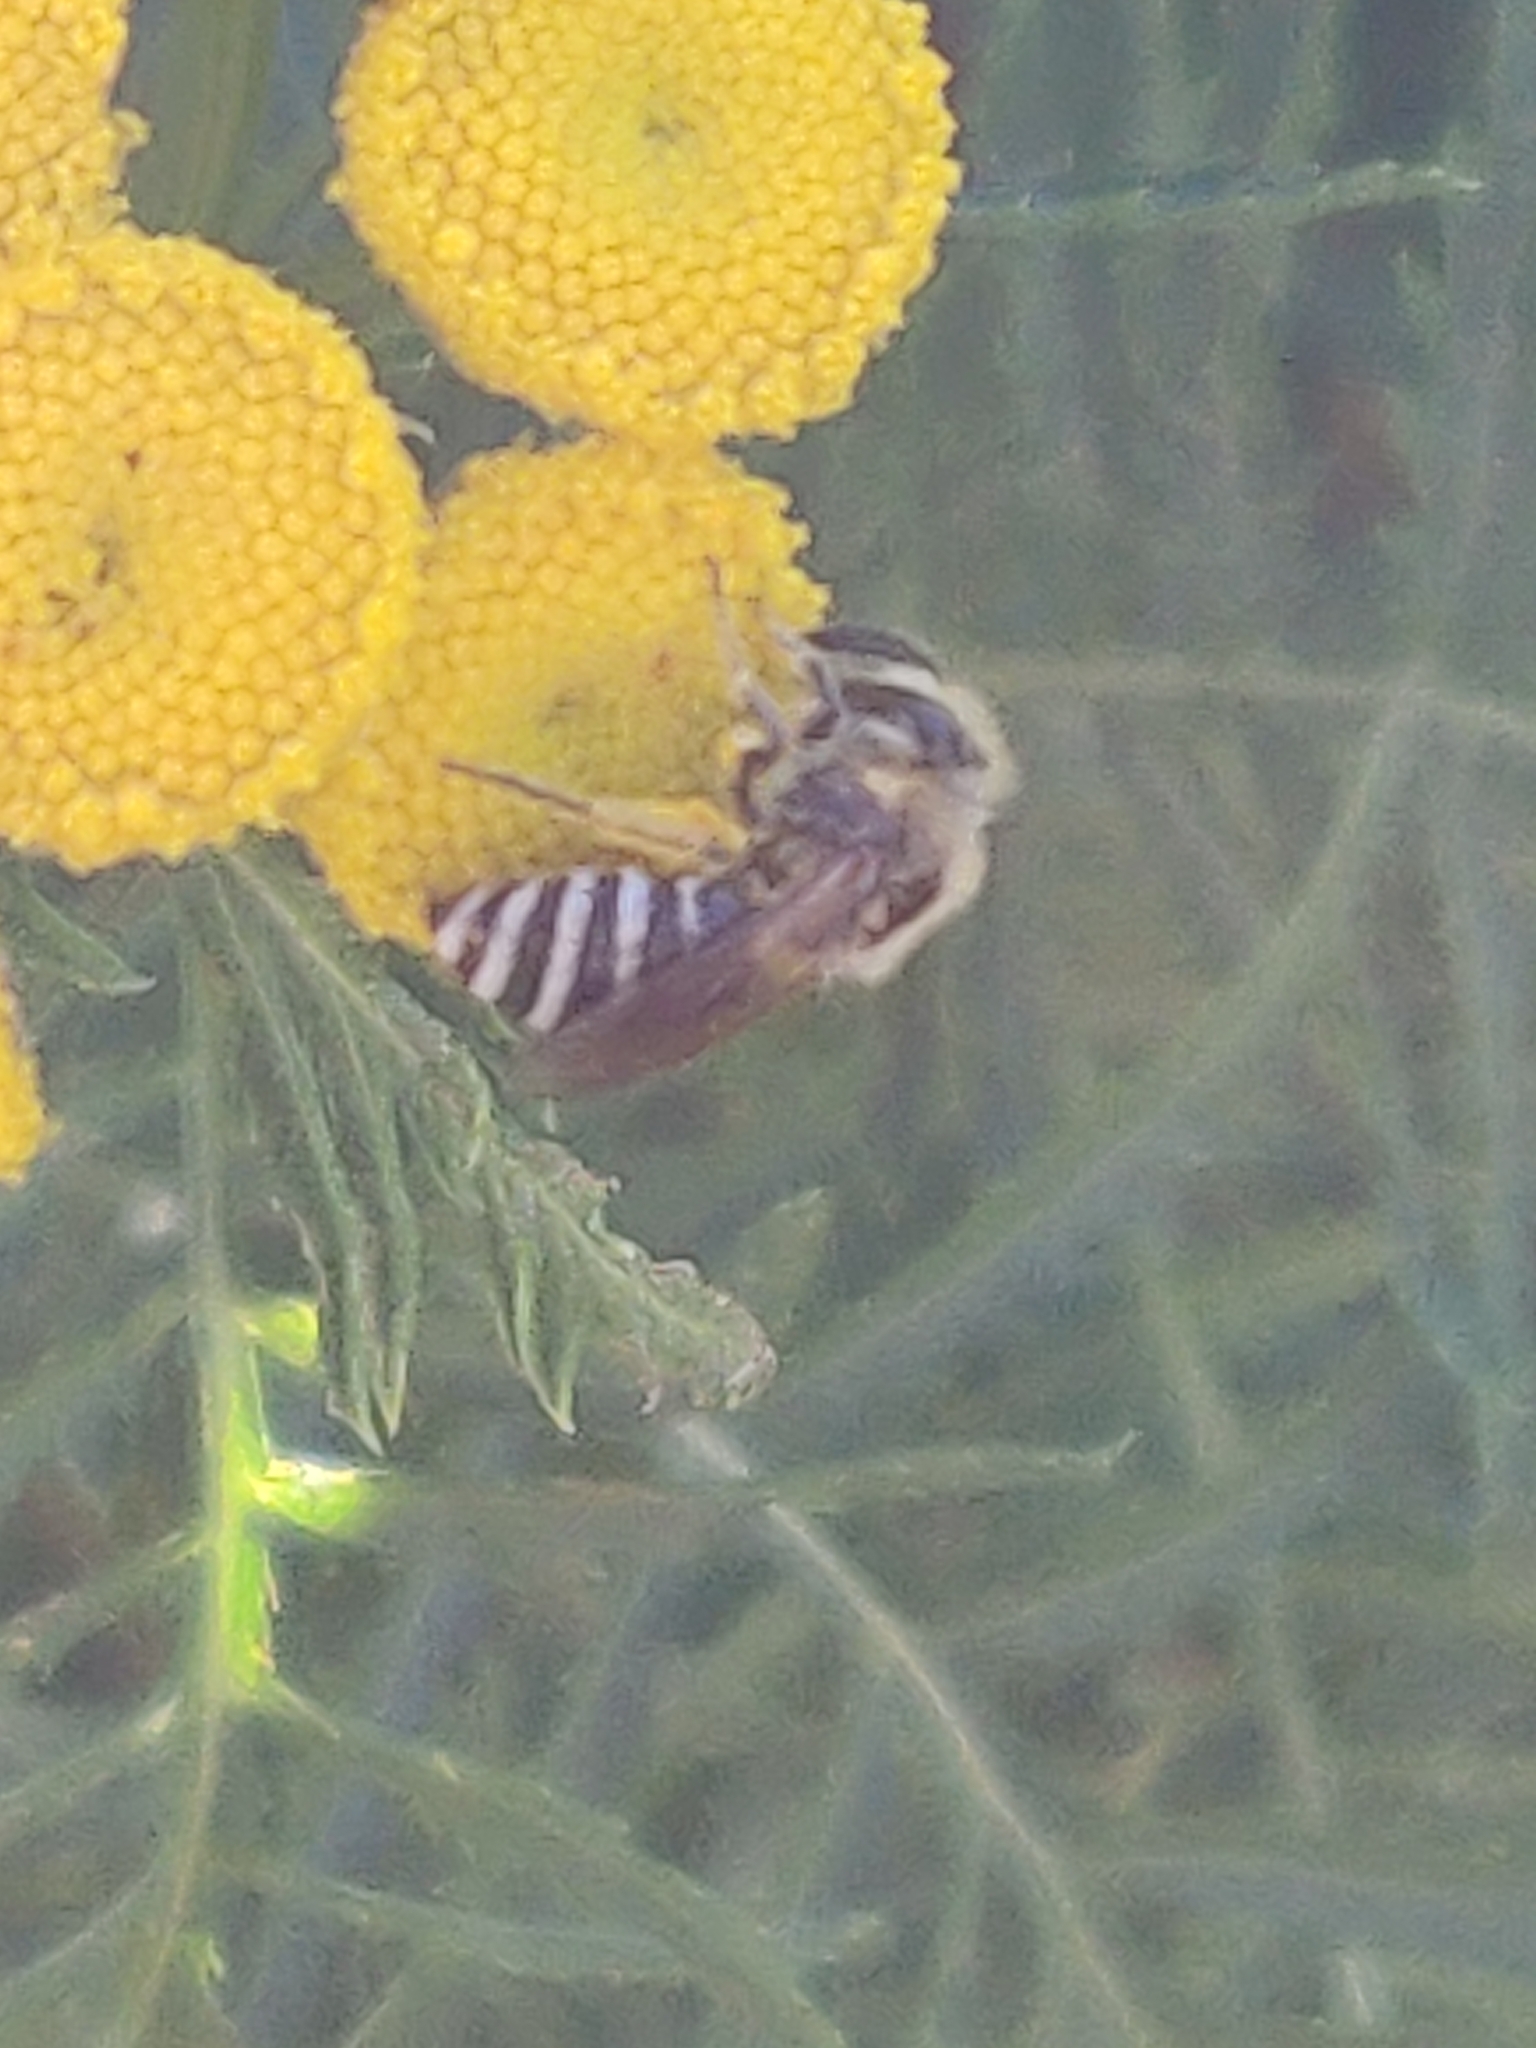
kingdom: Plantae
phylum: Tracheophyta
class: Magnoliopsida
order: Asterales
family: Asteraceae
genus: Tanacetum
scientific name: Tanacetum vulgare
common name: Common tansy
